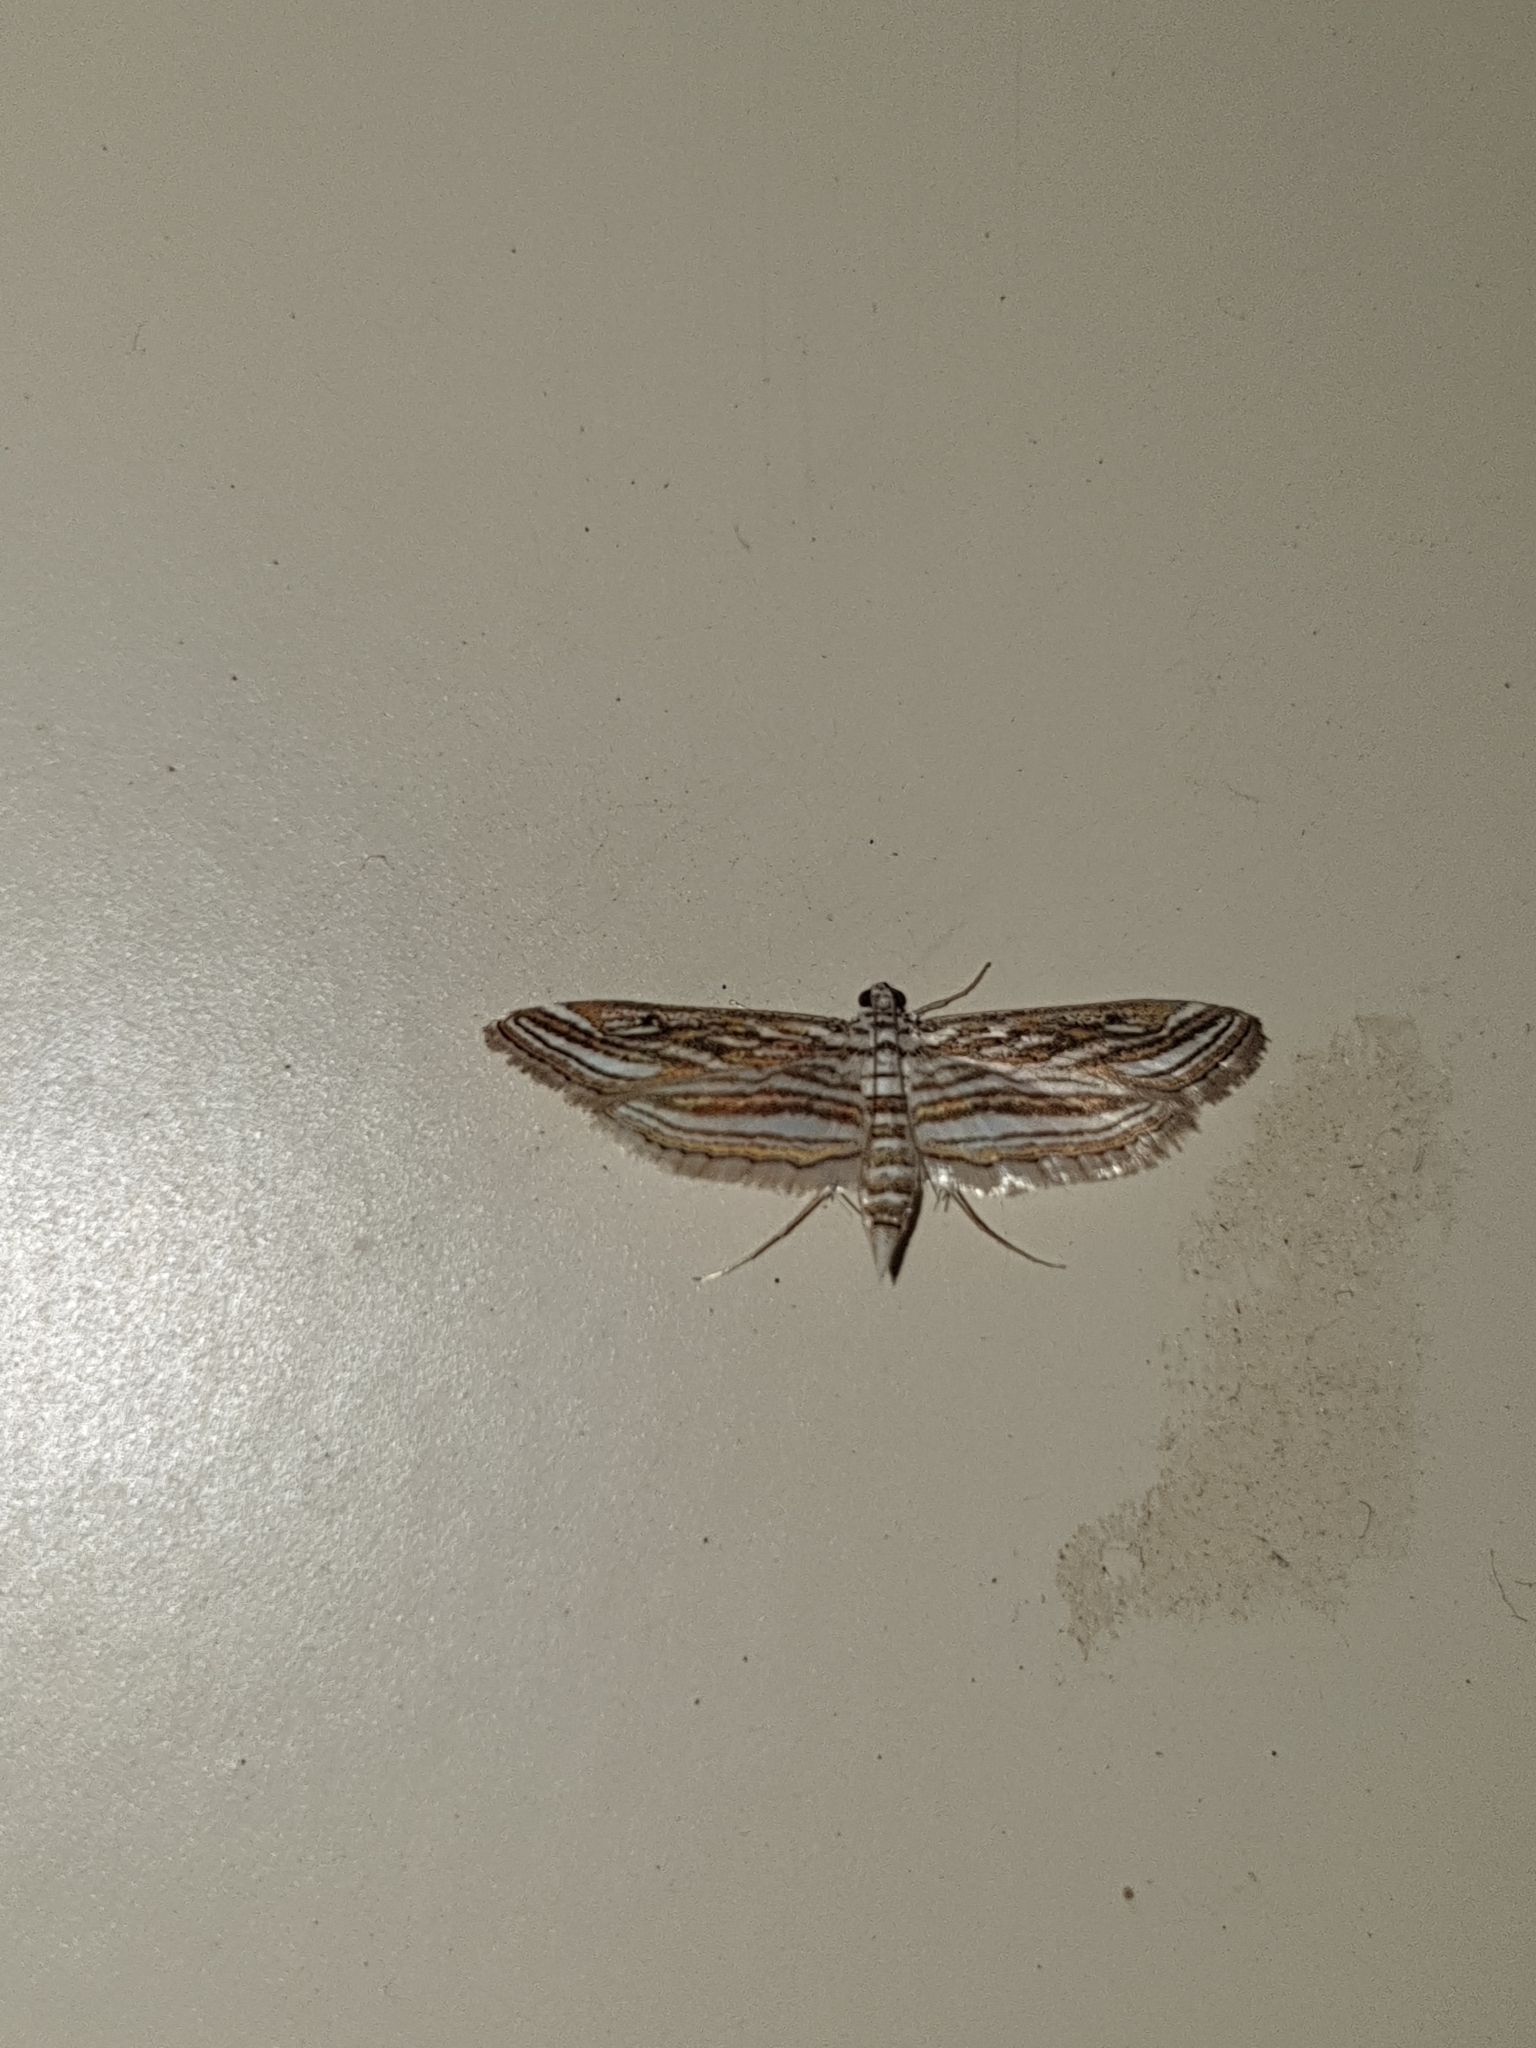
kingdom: Animalia
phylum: Arthropoda
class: Insecta
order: Lepidoptera
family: Crambidae
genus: Parapoynx
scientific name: Parapoynx fluctuosalis
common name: Moth
